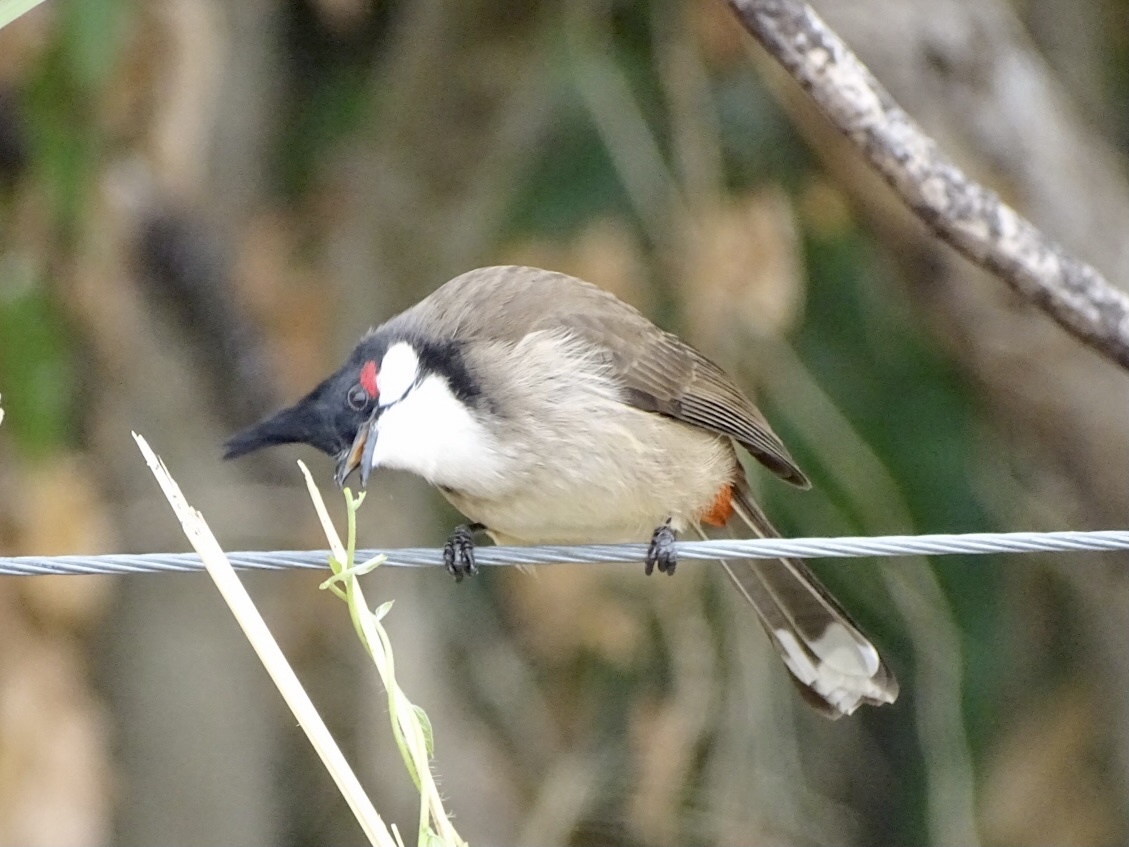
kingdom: Animalia
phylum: Chordata
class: Aves
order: Passeriformes
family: Pycnonotidae
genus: Pycnonotus
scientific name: Pycnonotus jocosus
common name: Red-whiskered bulbul
